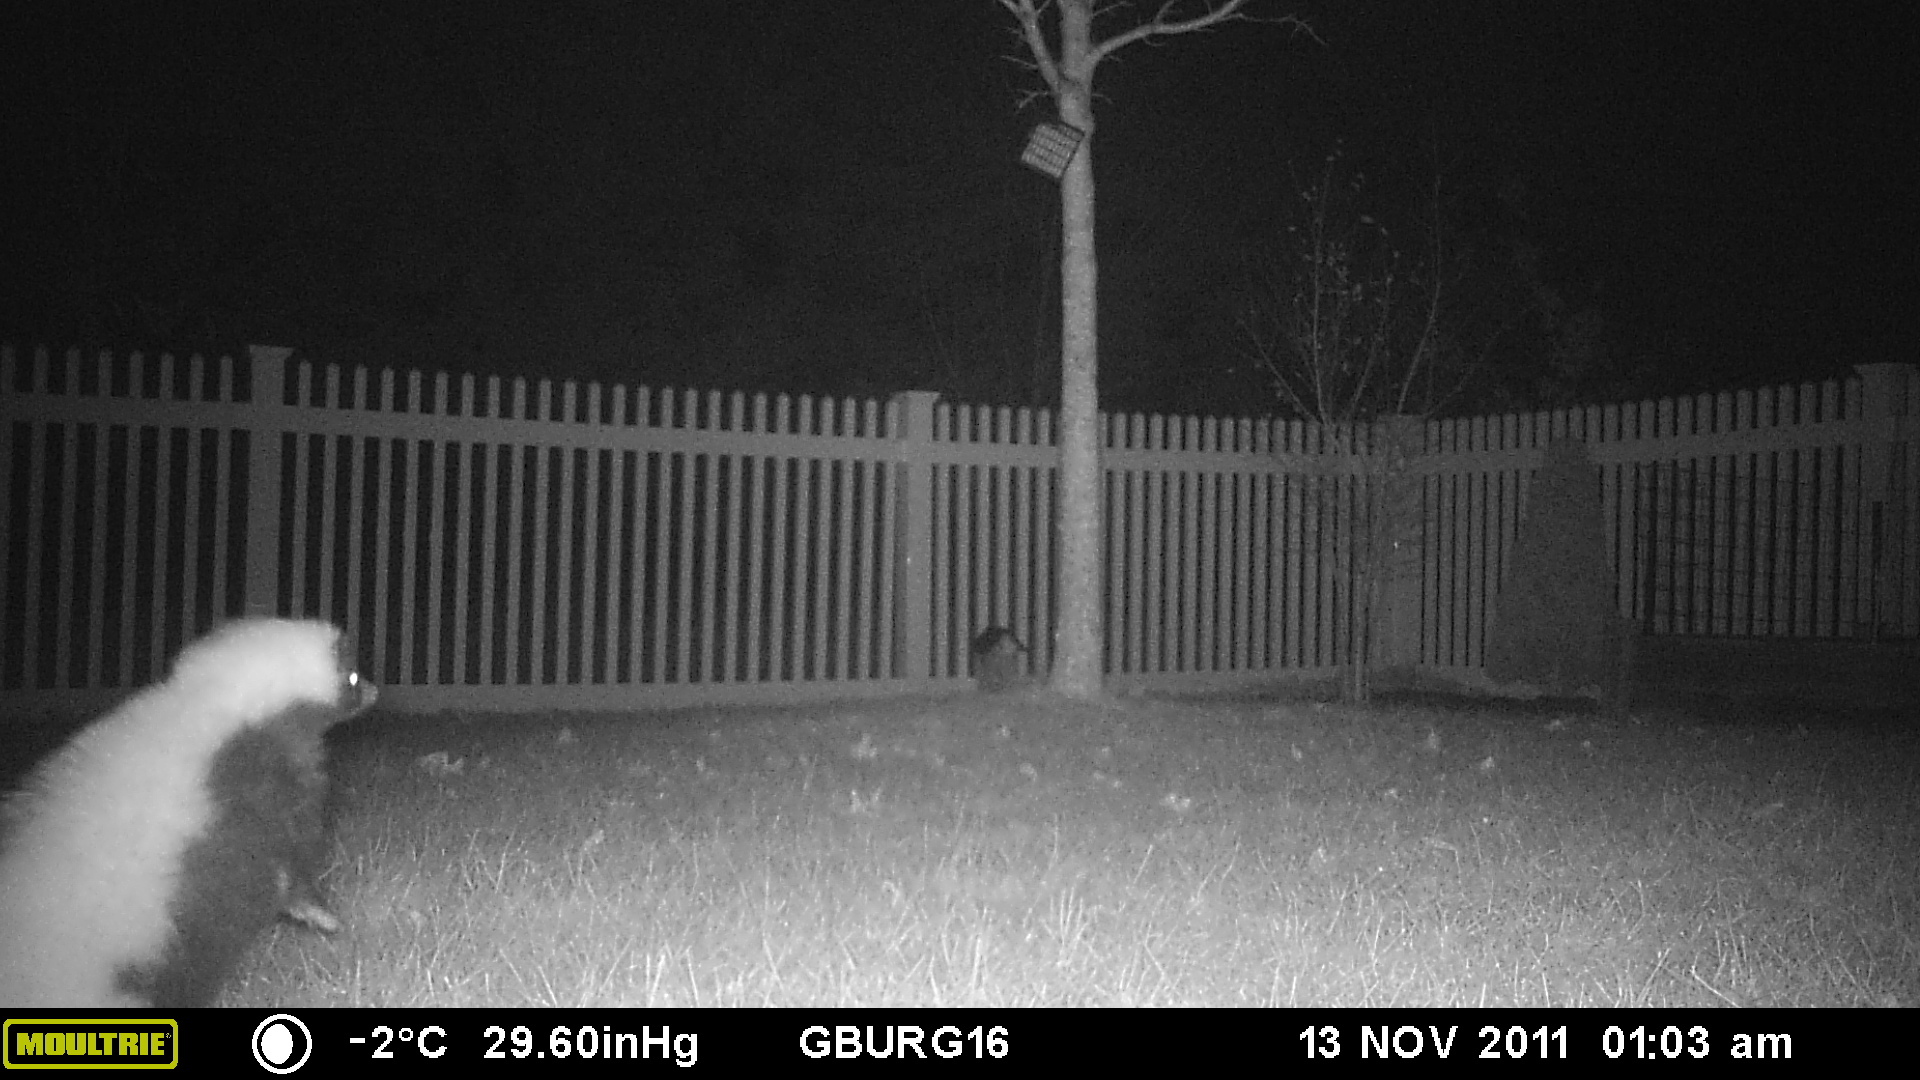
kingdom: Animalia
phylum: Chordata
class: Mammalia
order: Carnivora
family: Mephitidae
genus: Mephitis
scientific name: Mephitis mephitis
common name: Striped skunk
